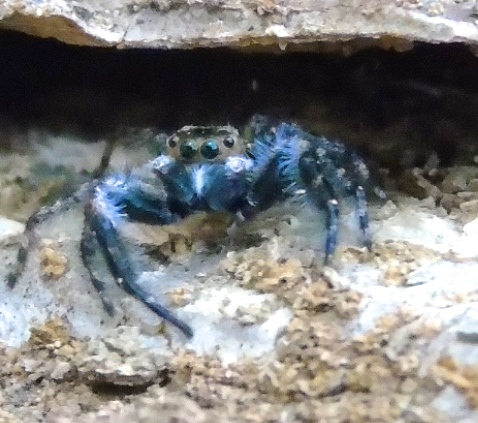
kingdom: Animalia
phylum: Arthropoda
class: Arachnida
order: Araneae
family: Salticidae
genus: Balmaceda
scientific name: Balmaceda
